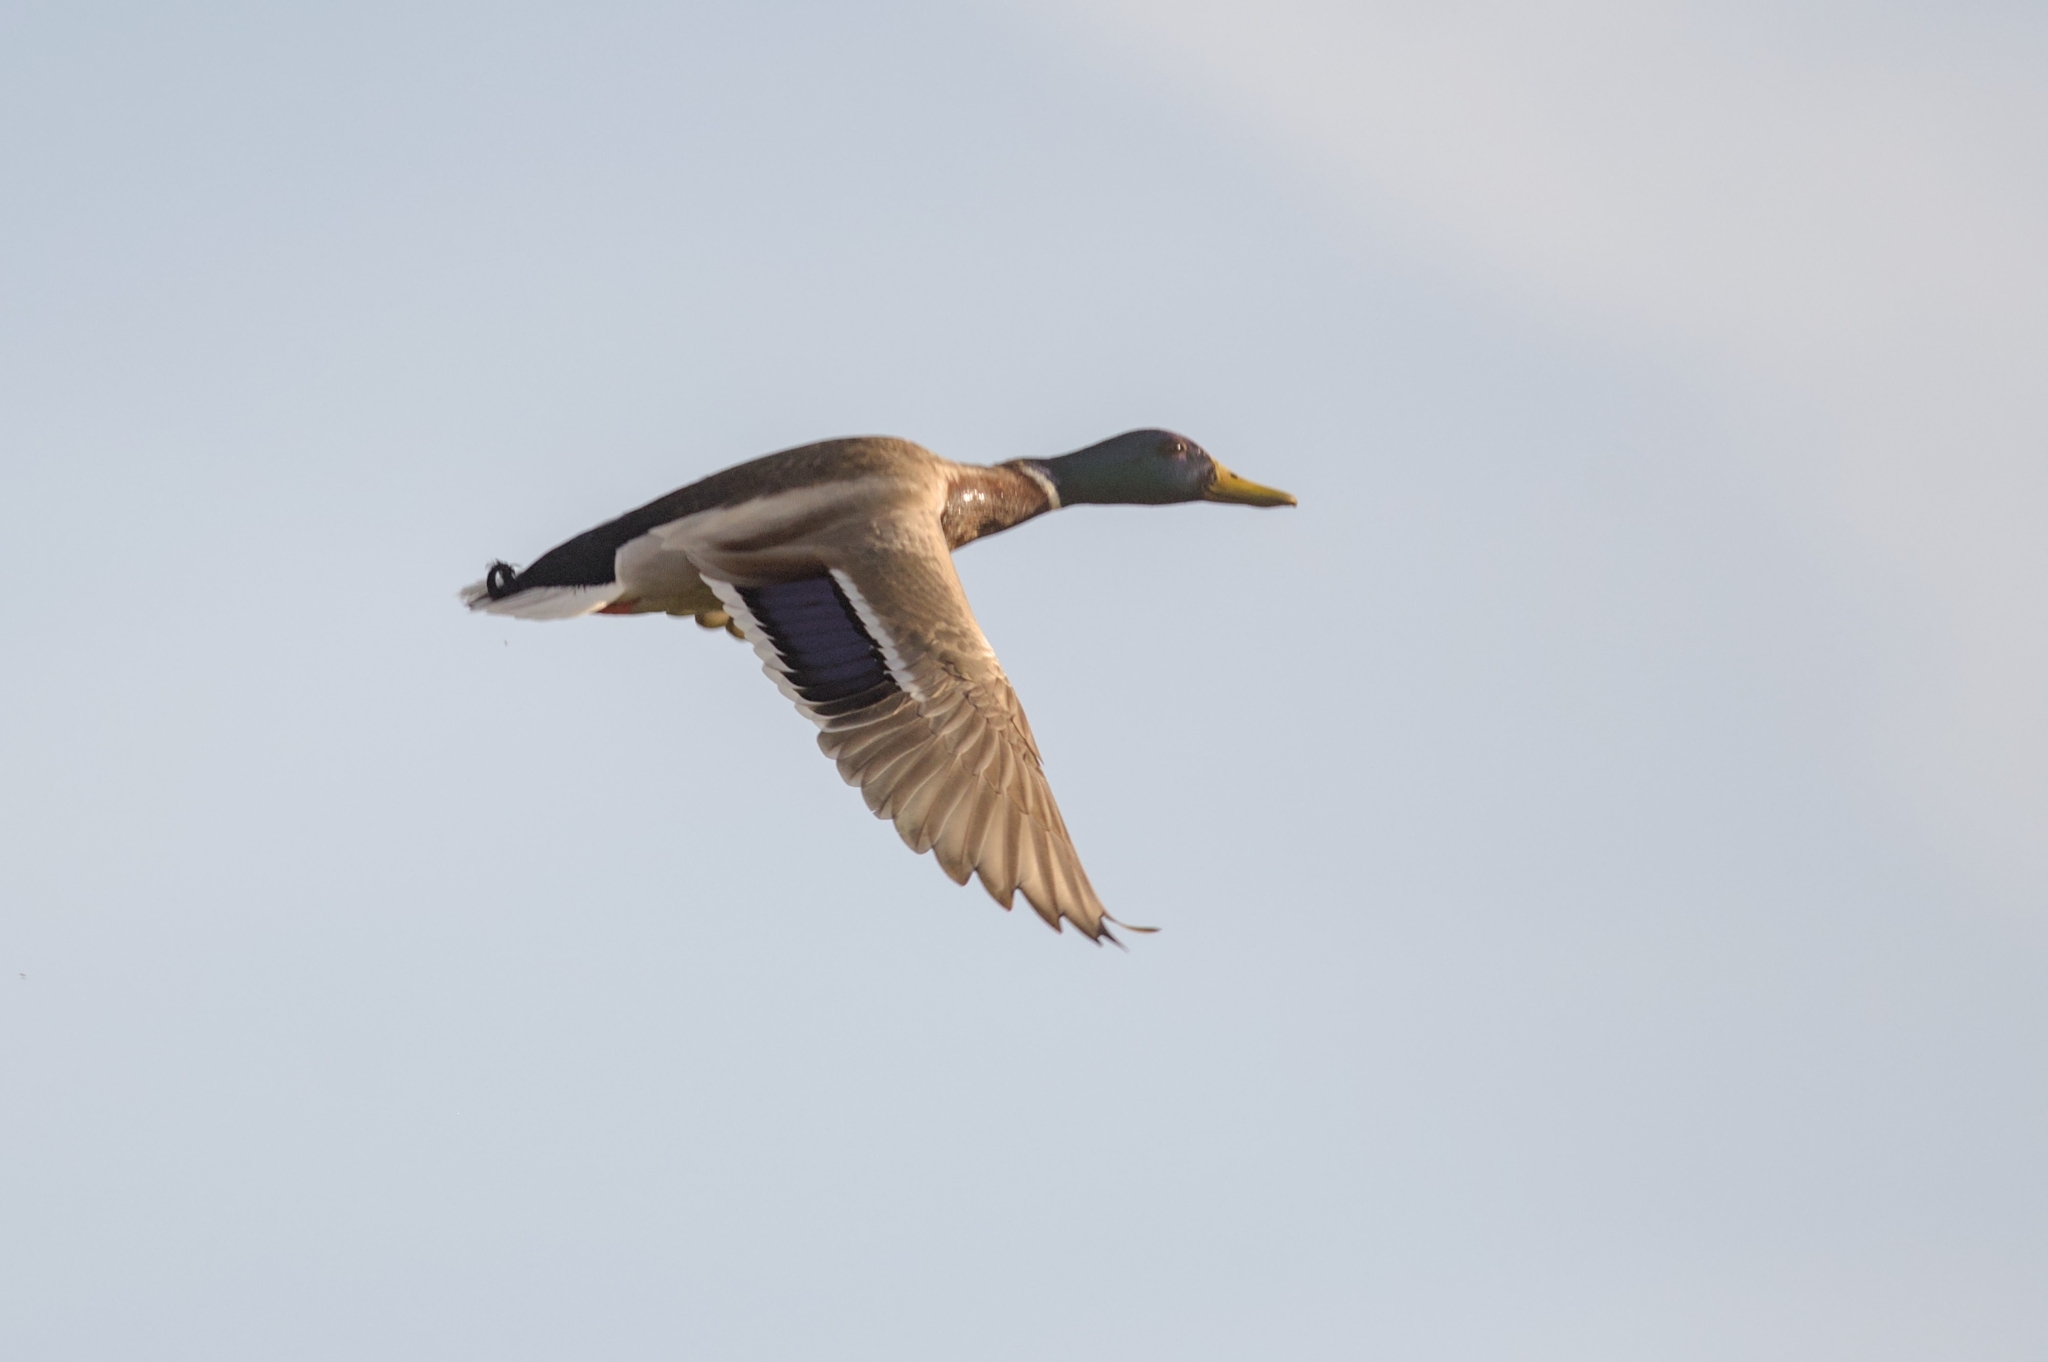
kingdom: Animalia
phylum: Chordata
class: Aves
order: Anseriformes
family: Anatidae
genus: Anas
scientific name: Anas platyrhynchos
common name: Mallard
